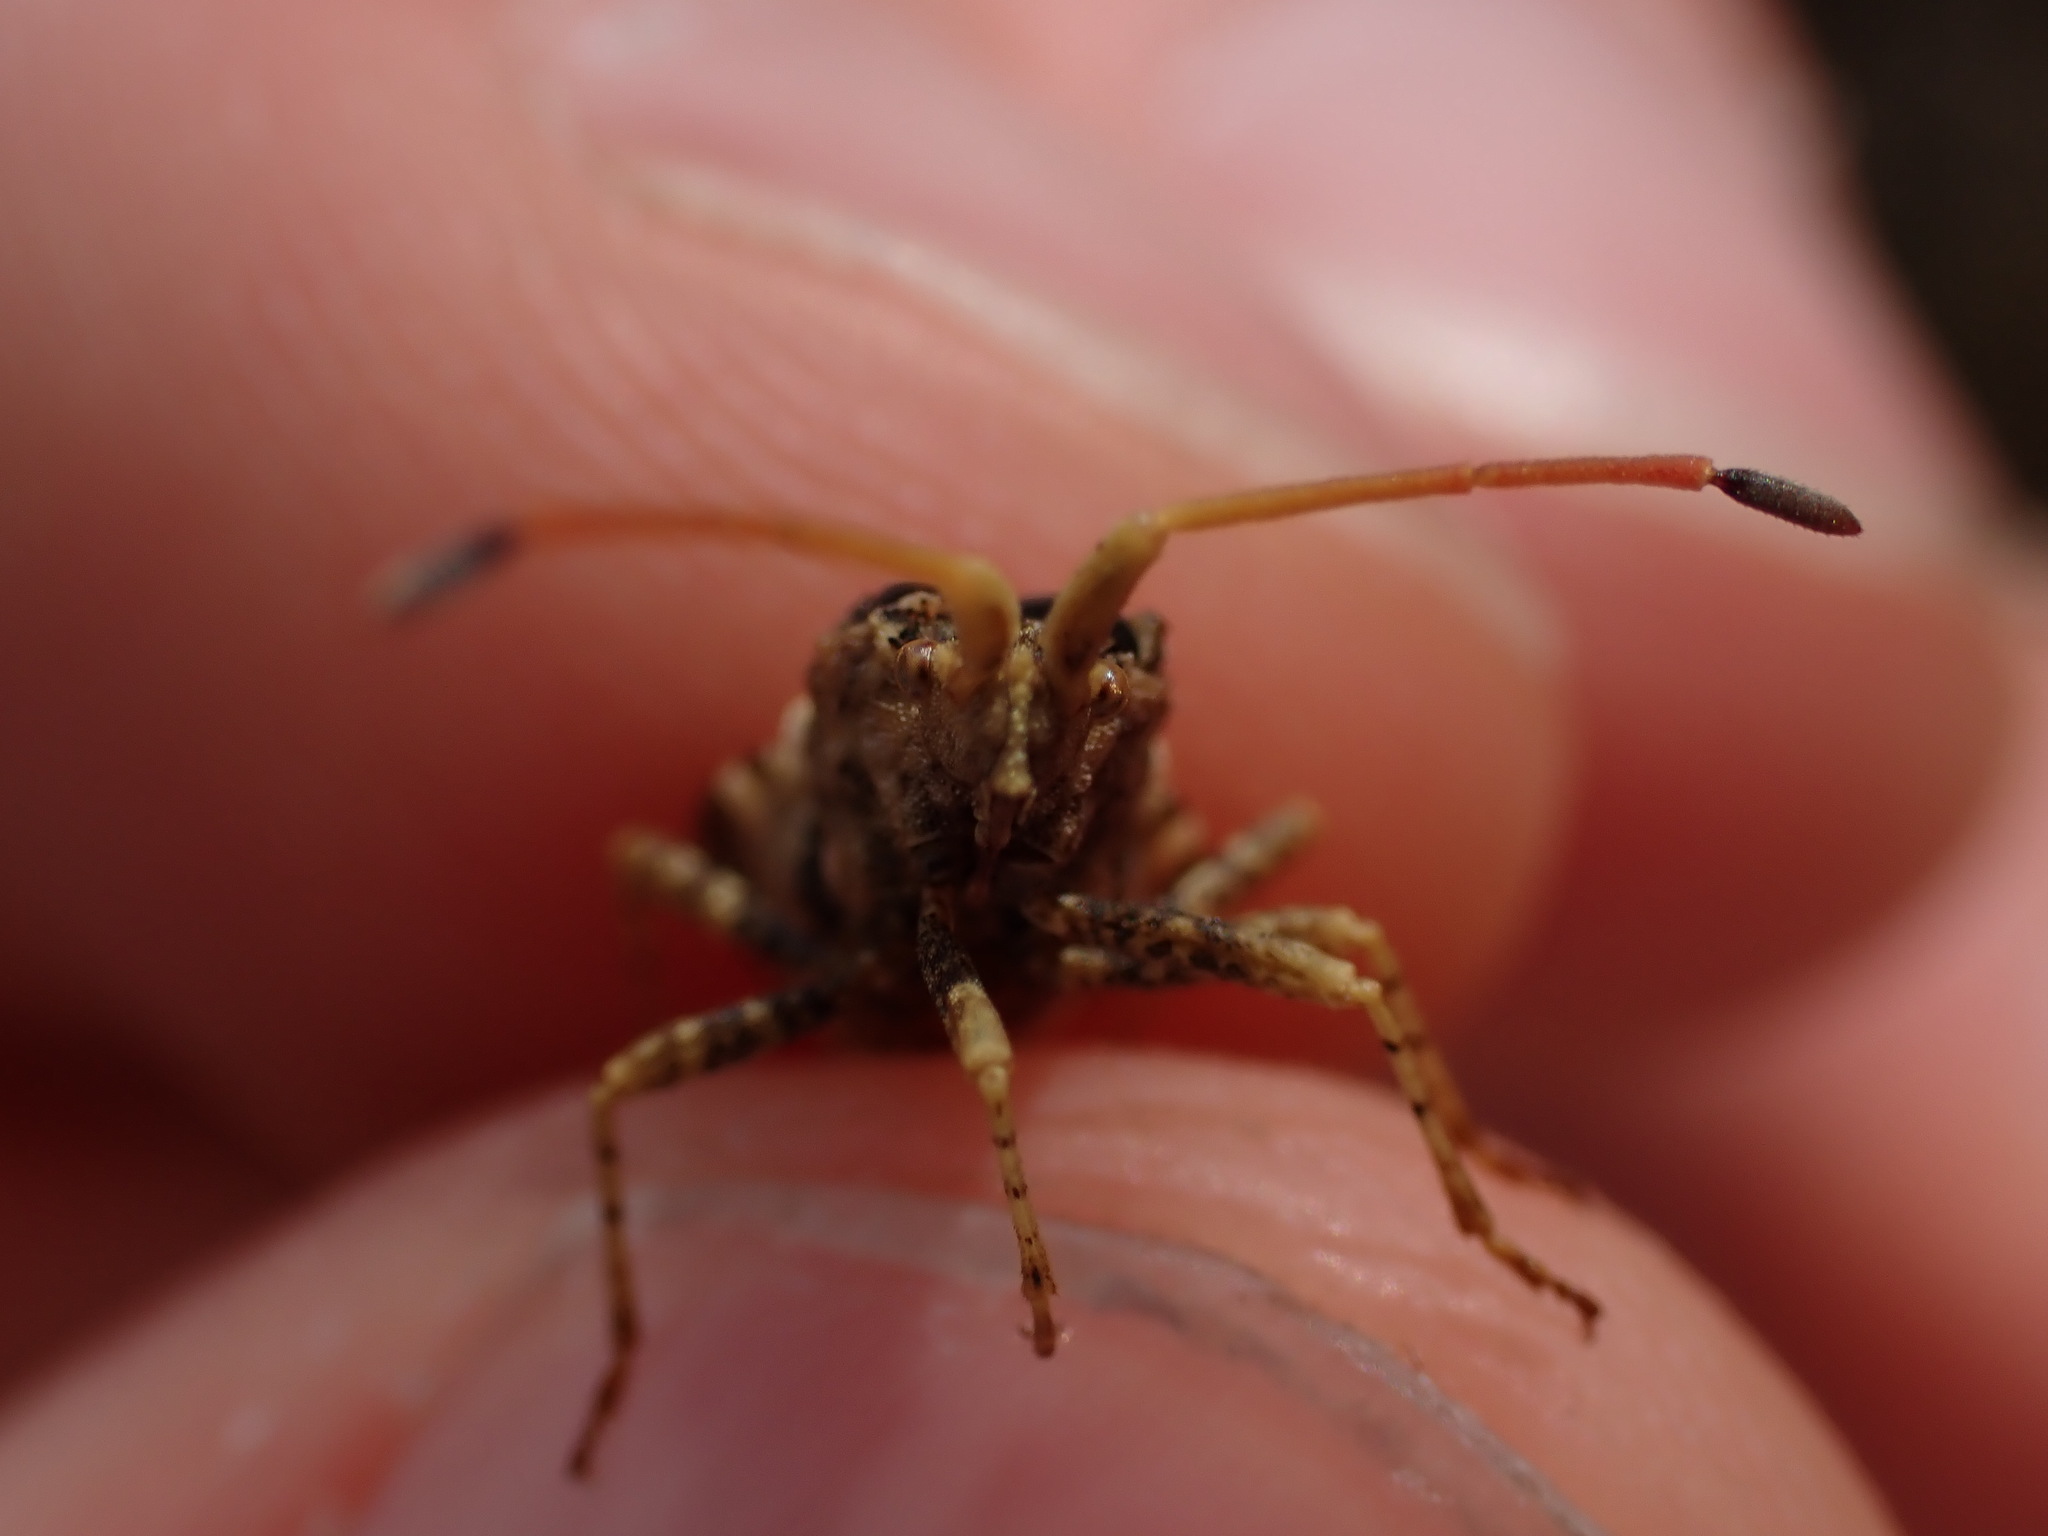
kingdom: Animalia
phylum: Arthropoda
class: Insecta
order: Hemiptera
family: Coreidae
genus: Centrocoris
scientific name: Centrocoris variegatus
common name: Leaf-footed bug
